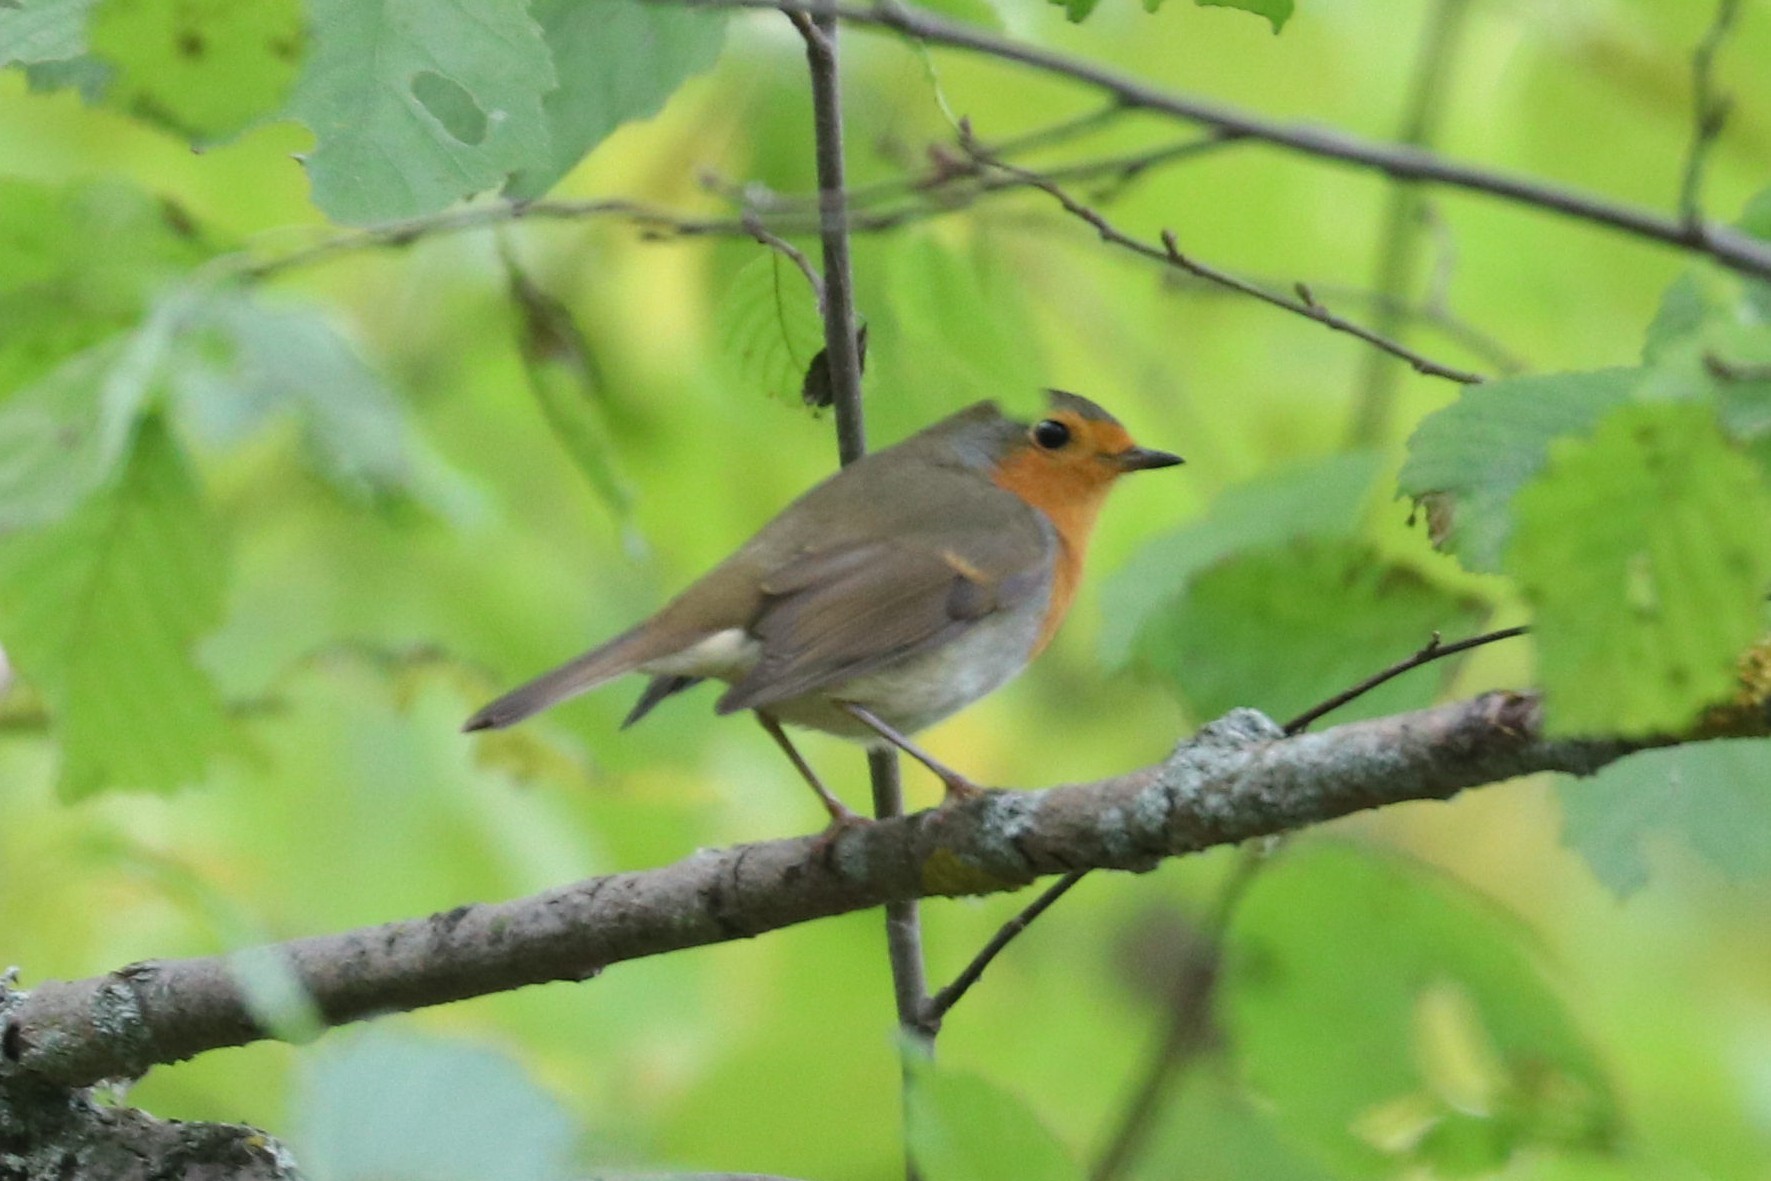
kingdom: Animalia
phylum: Chordata
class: Aves
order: Passeriformes
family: Muscicapidae
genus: Erithacus
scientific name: Erithacus rubecula
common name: European robin
